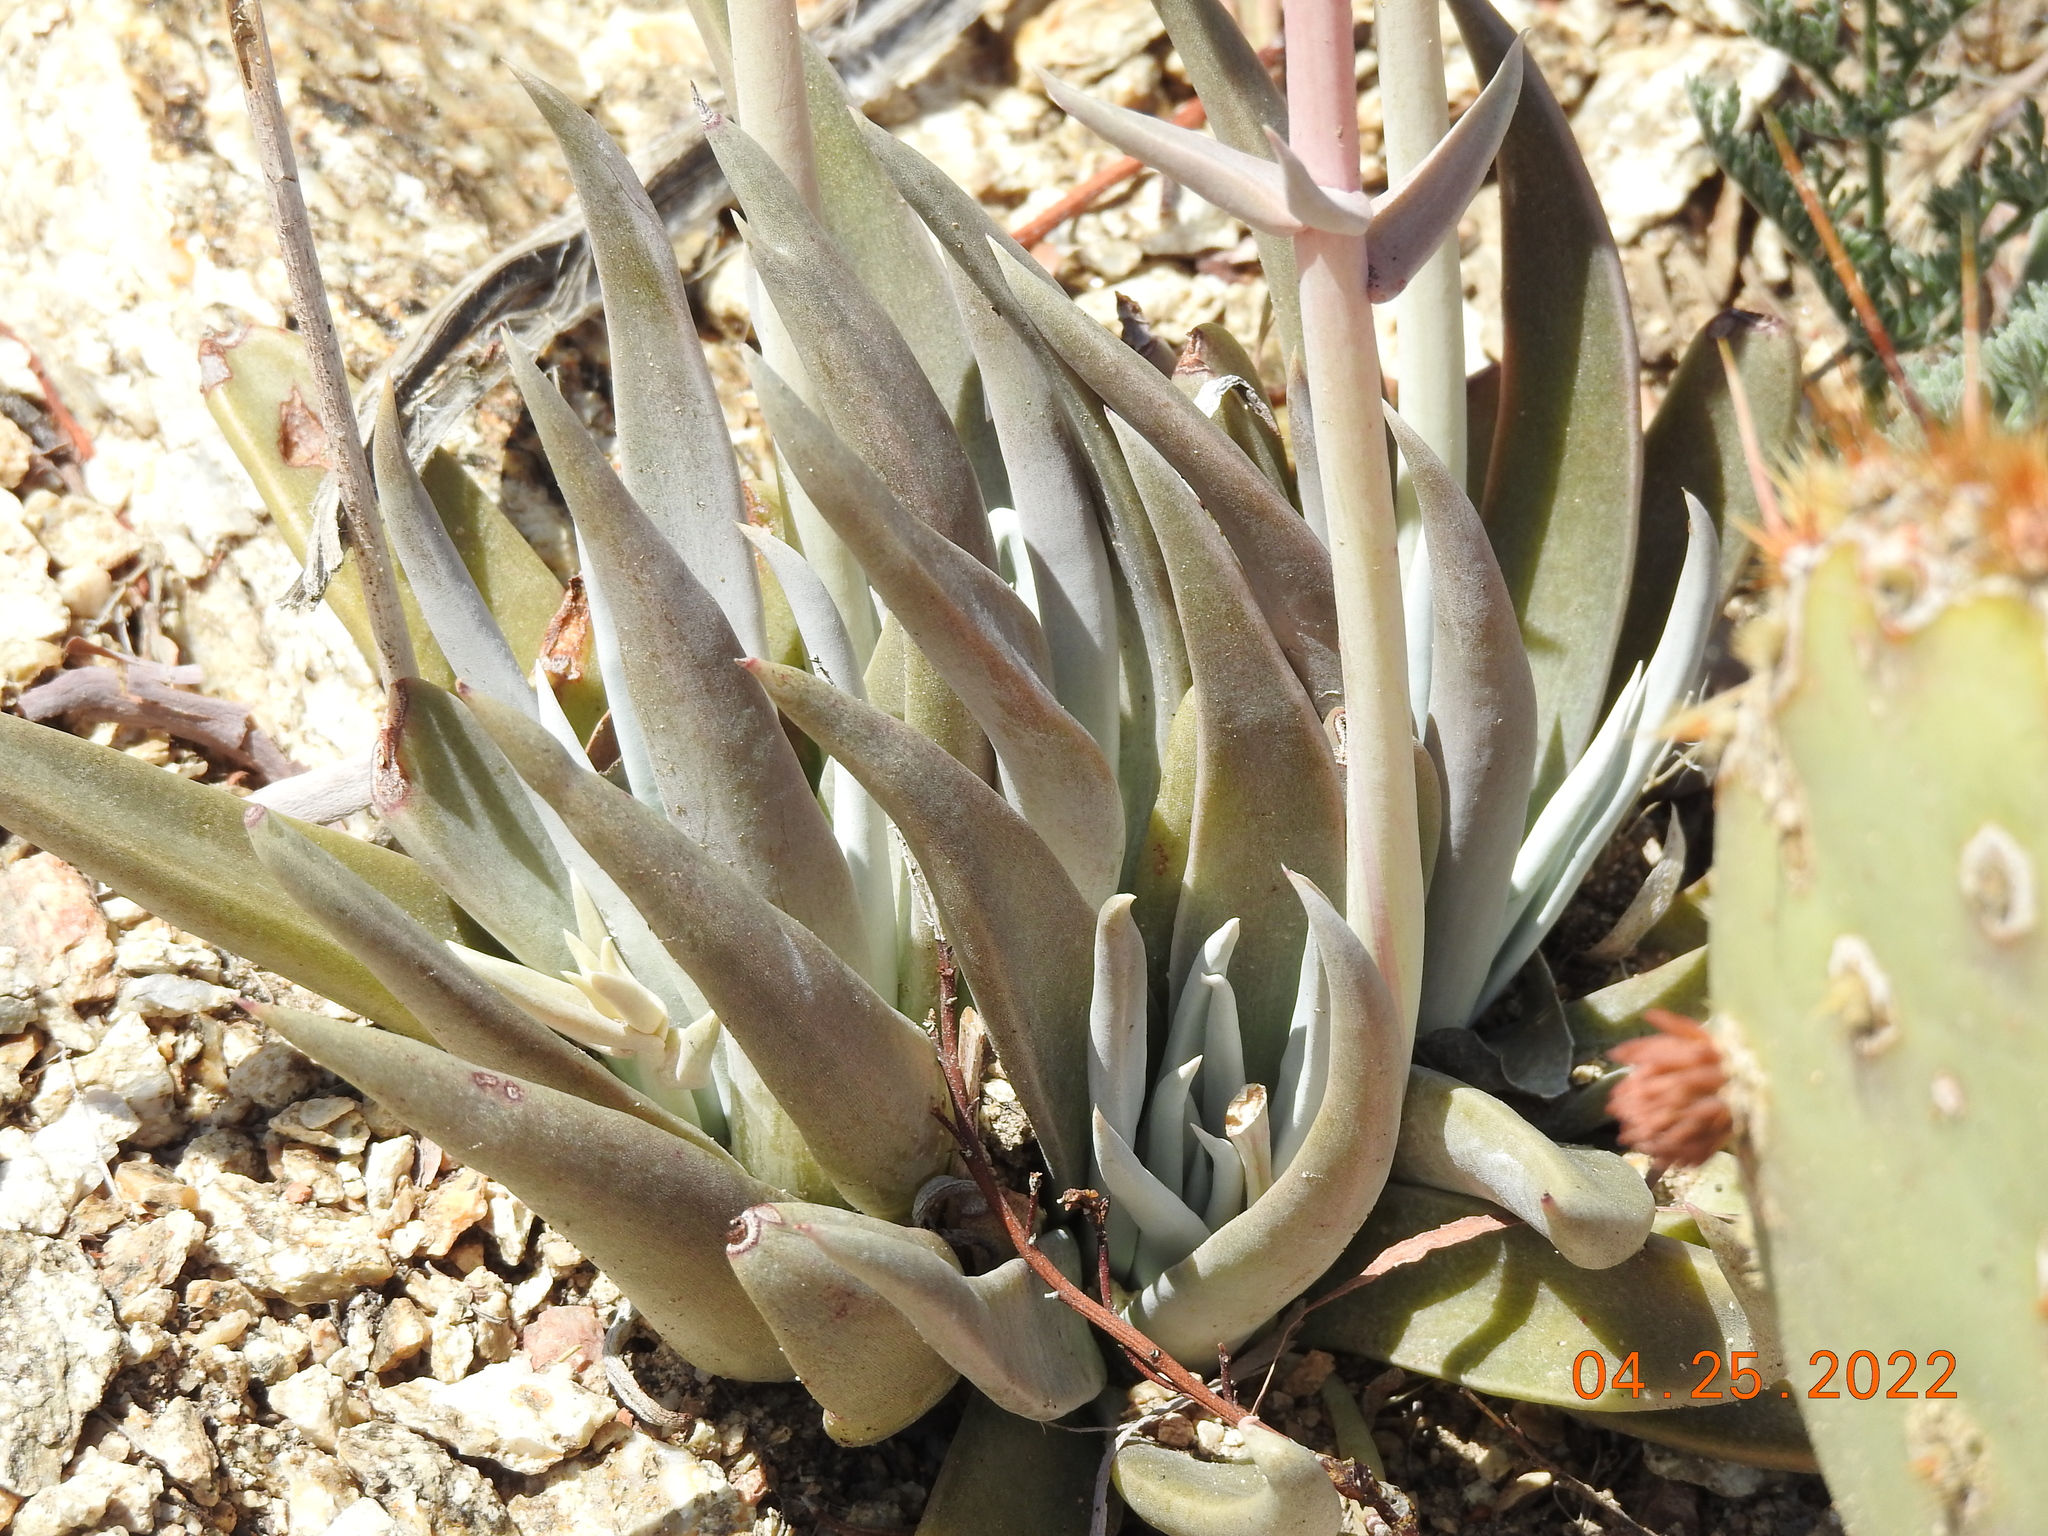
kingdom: Plantae
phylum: Tracheophyta
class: Magnoliopsida
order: Saxifragales
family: Crassulaceae
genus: Dudleya
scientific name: Dudleya saxosa
